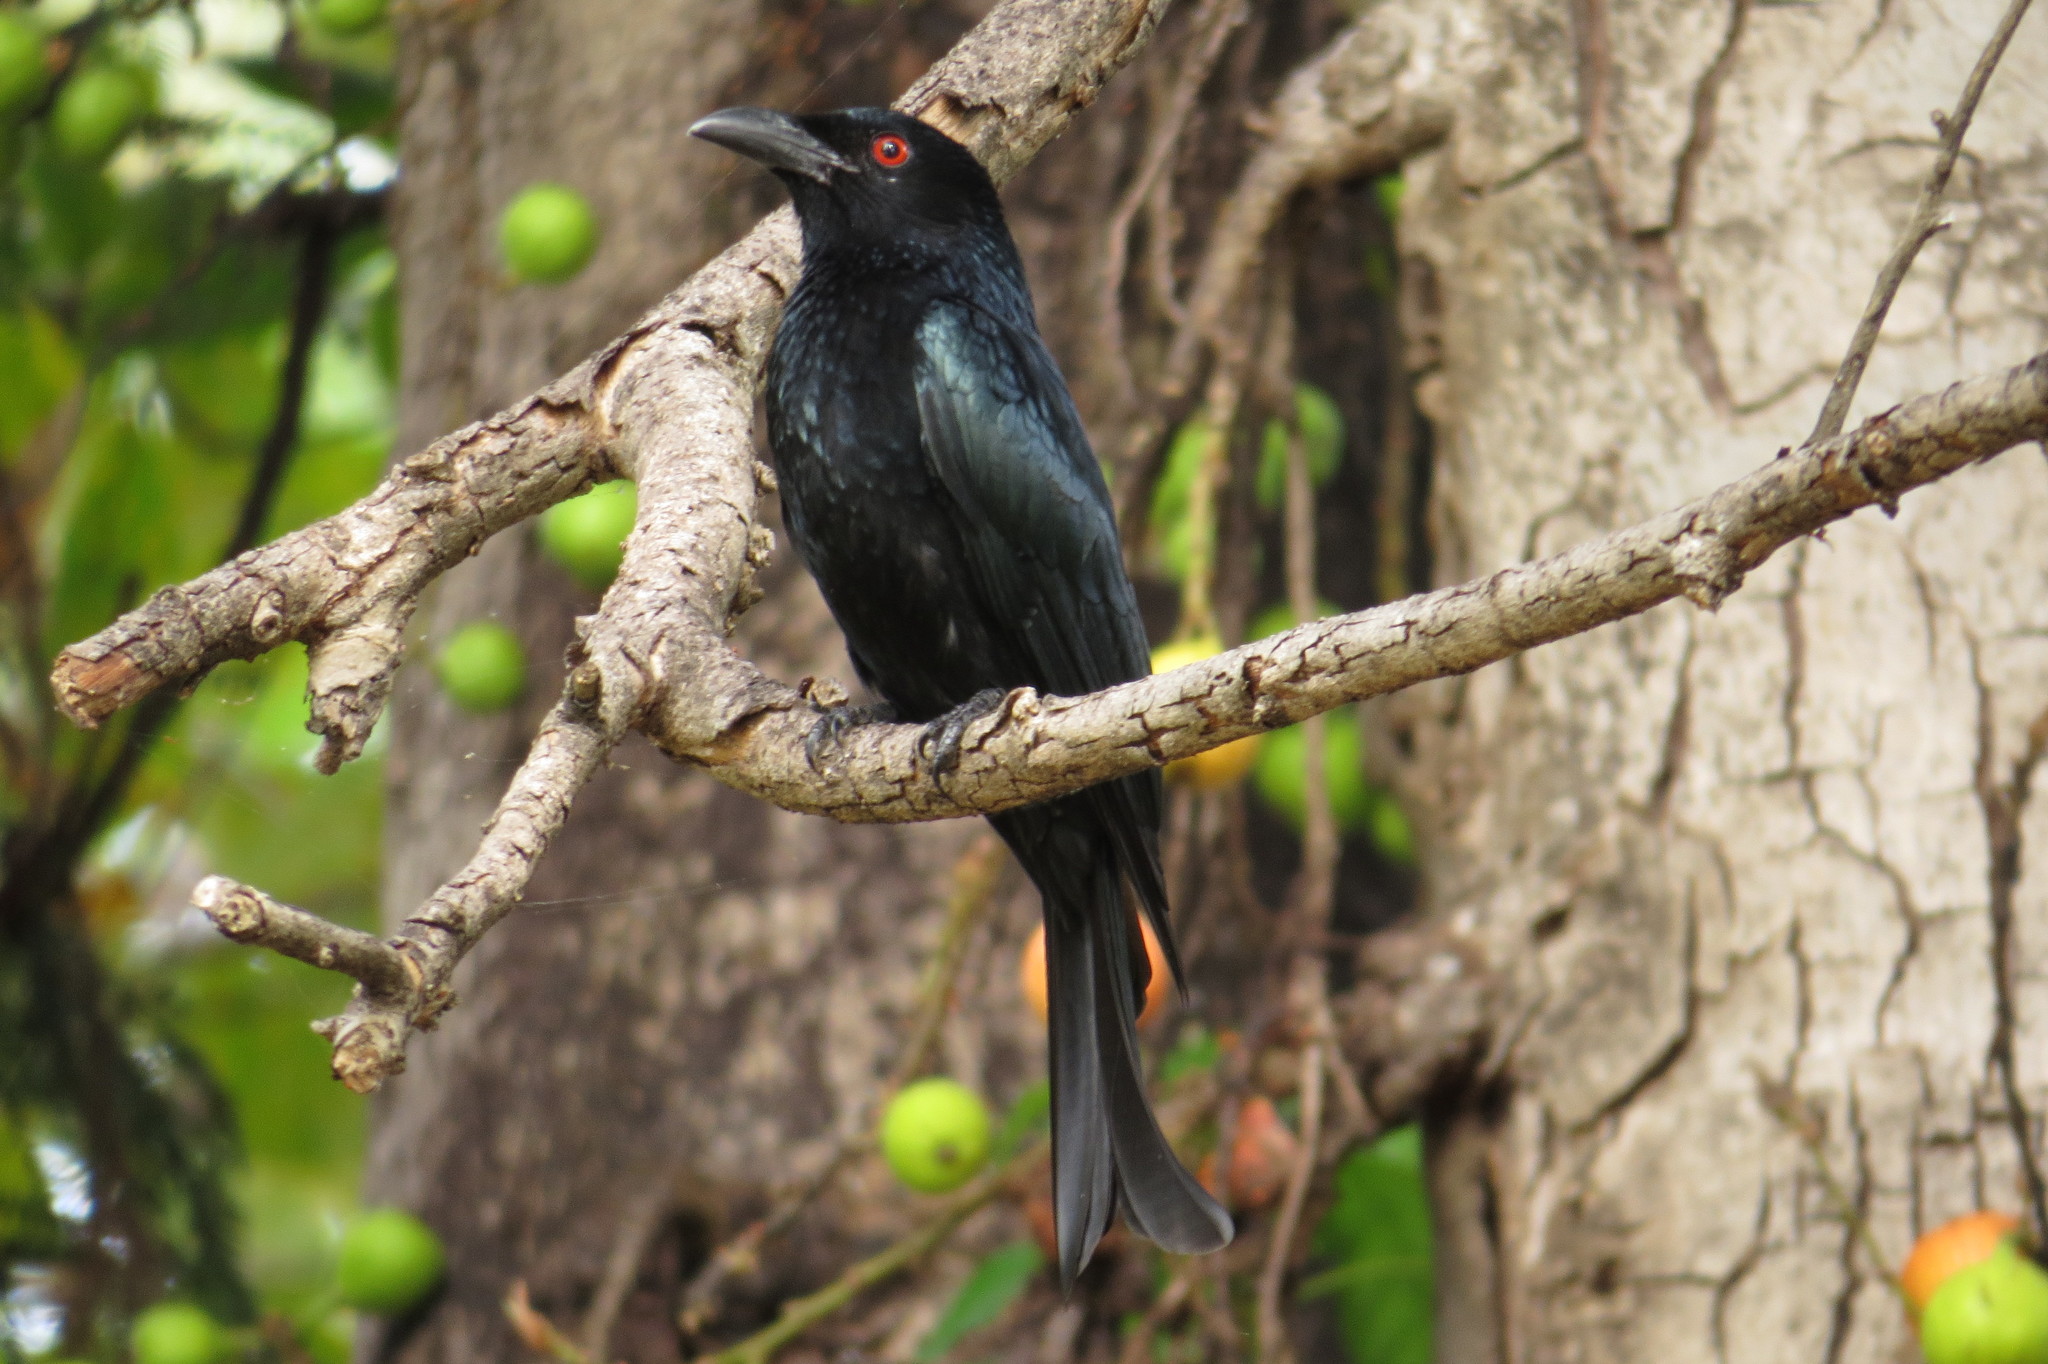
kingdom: Animalia
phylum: Chordata
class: Aves
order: Passeriformes
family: Dicruridae
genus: Dicrurus
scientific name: Dicrurus bracteatus
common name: Spangled drongo
